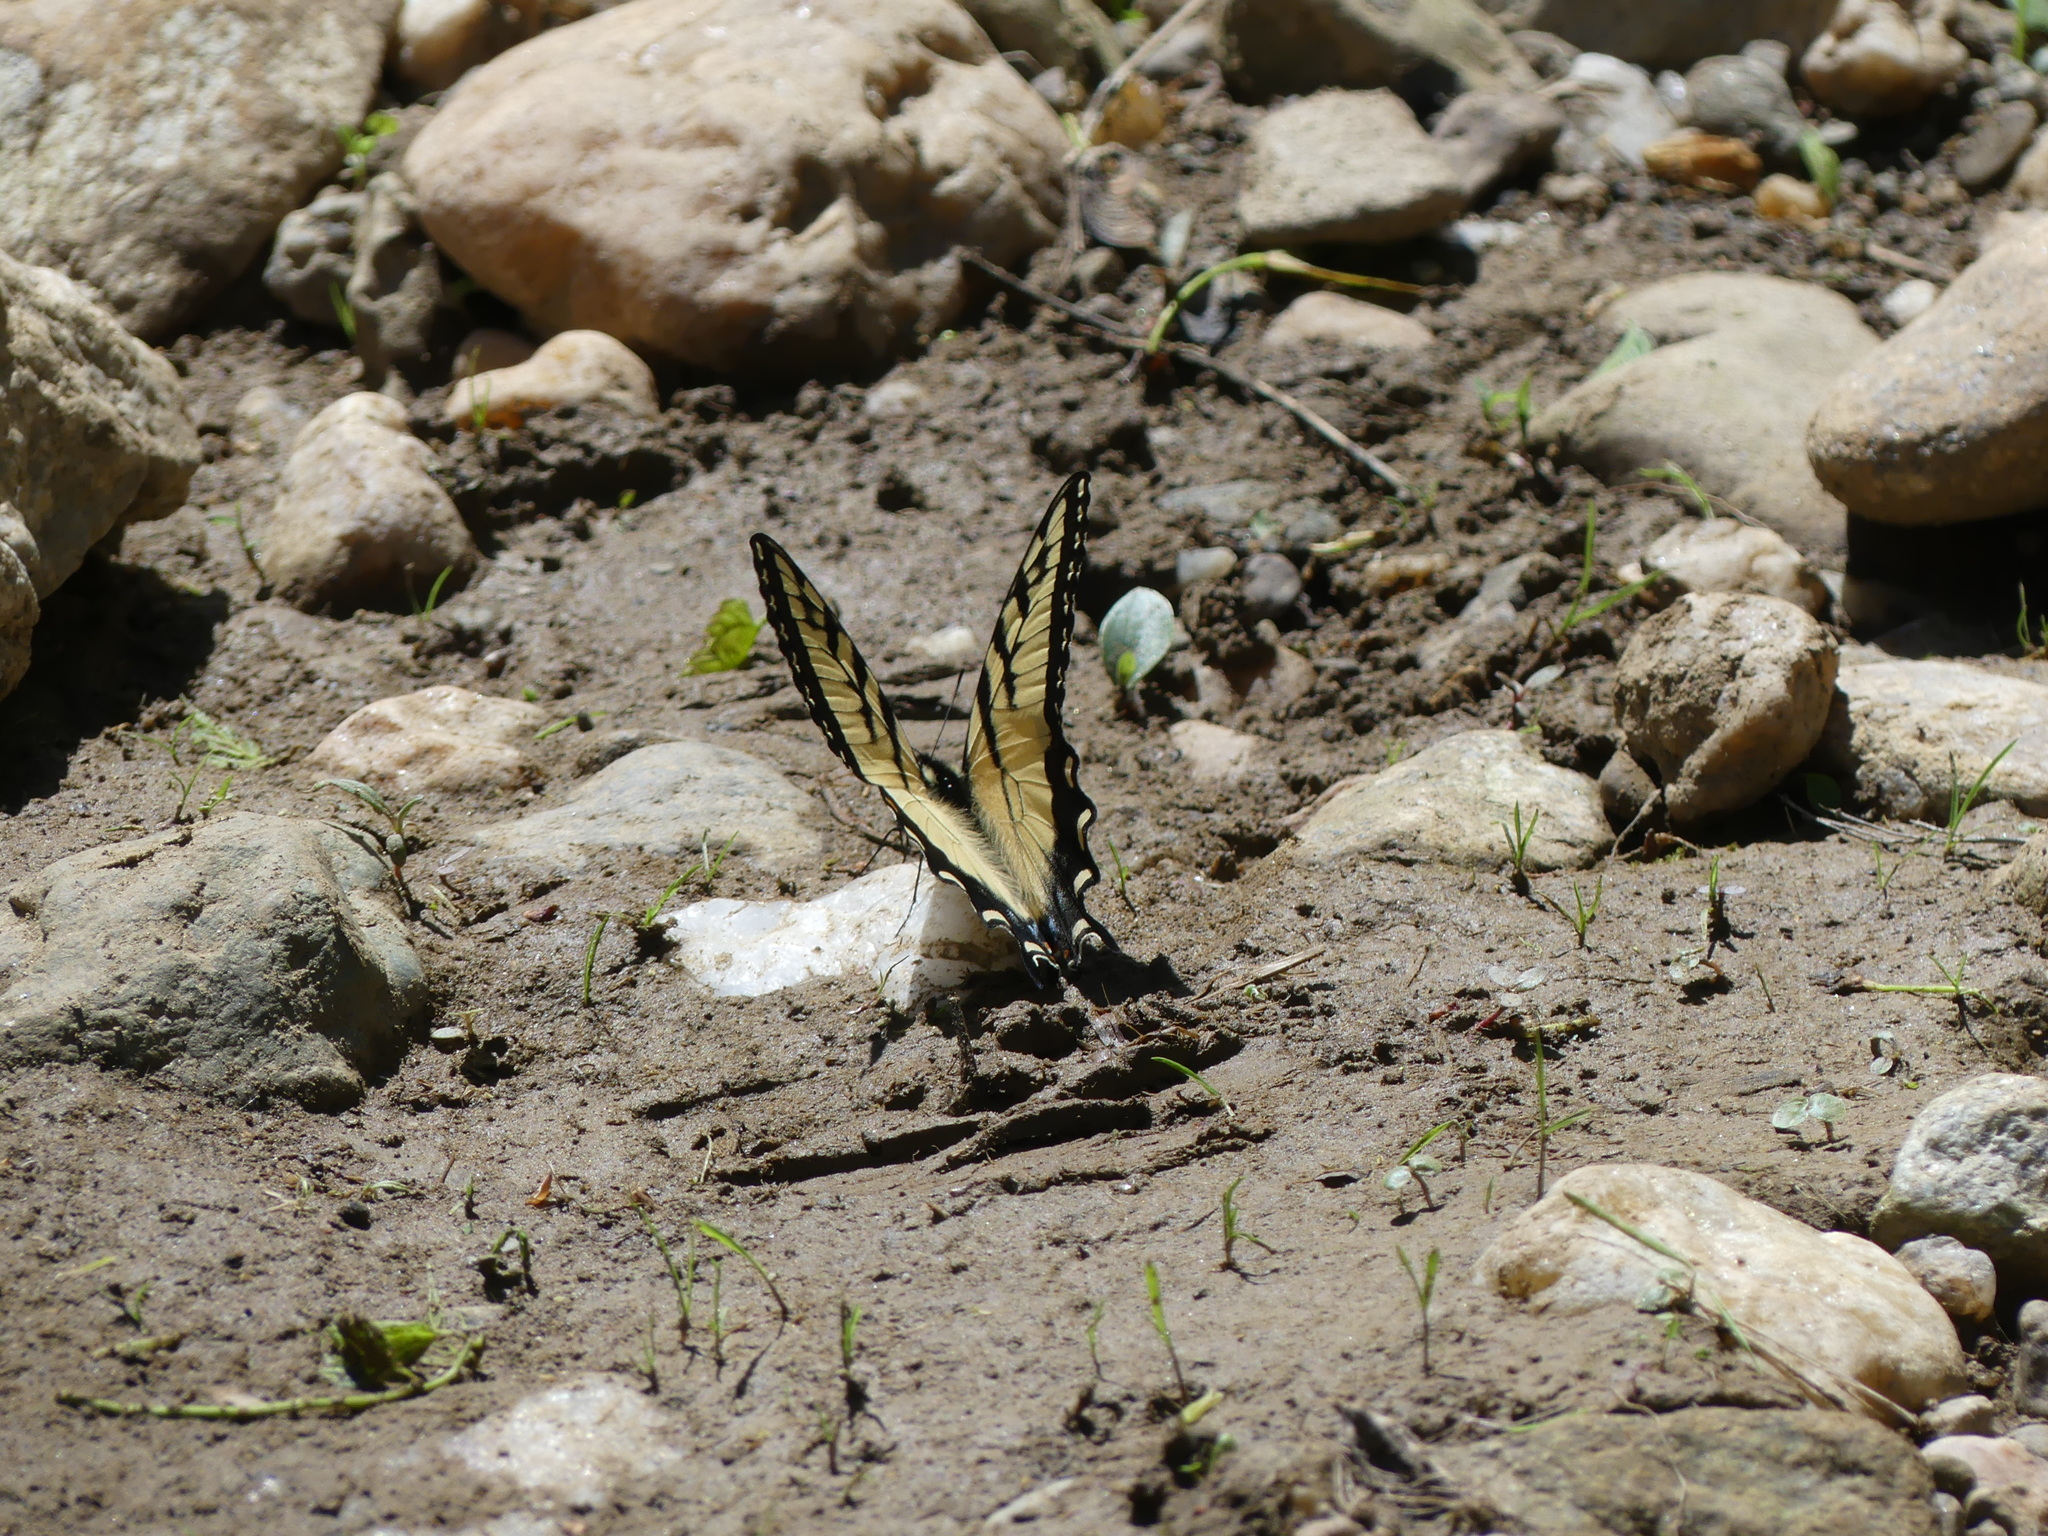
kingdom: Animalia
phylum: Arthropoda
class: Insecta
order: Lepidoptera
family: Papilionidae
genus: Papilio
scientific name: Papilio glaucus
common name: Tiger swallowtail
